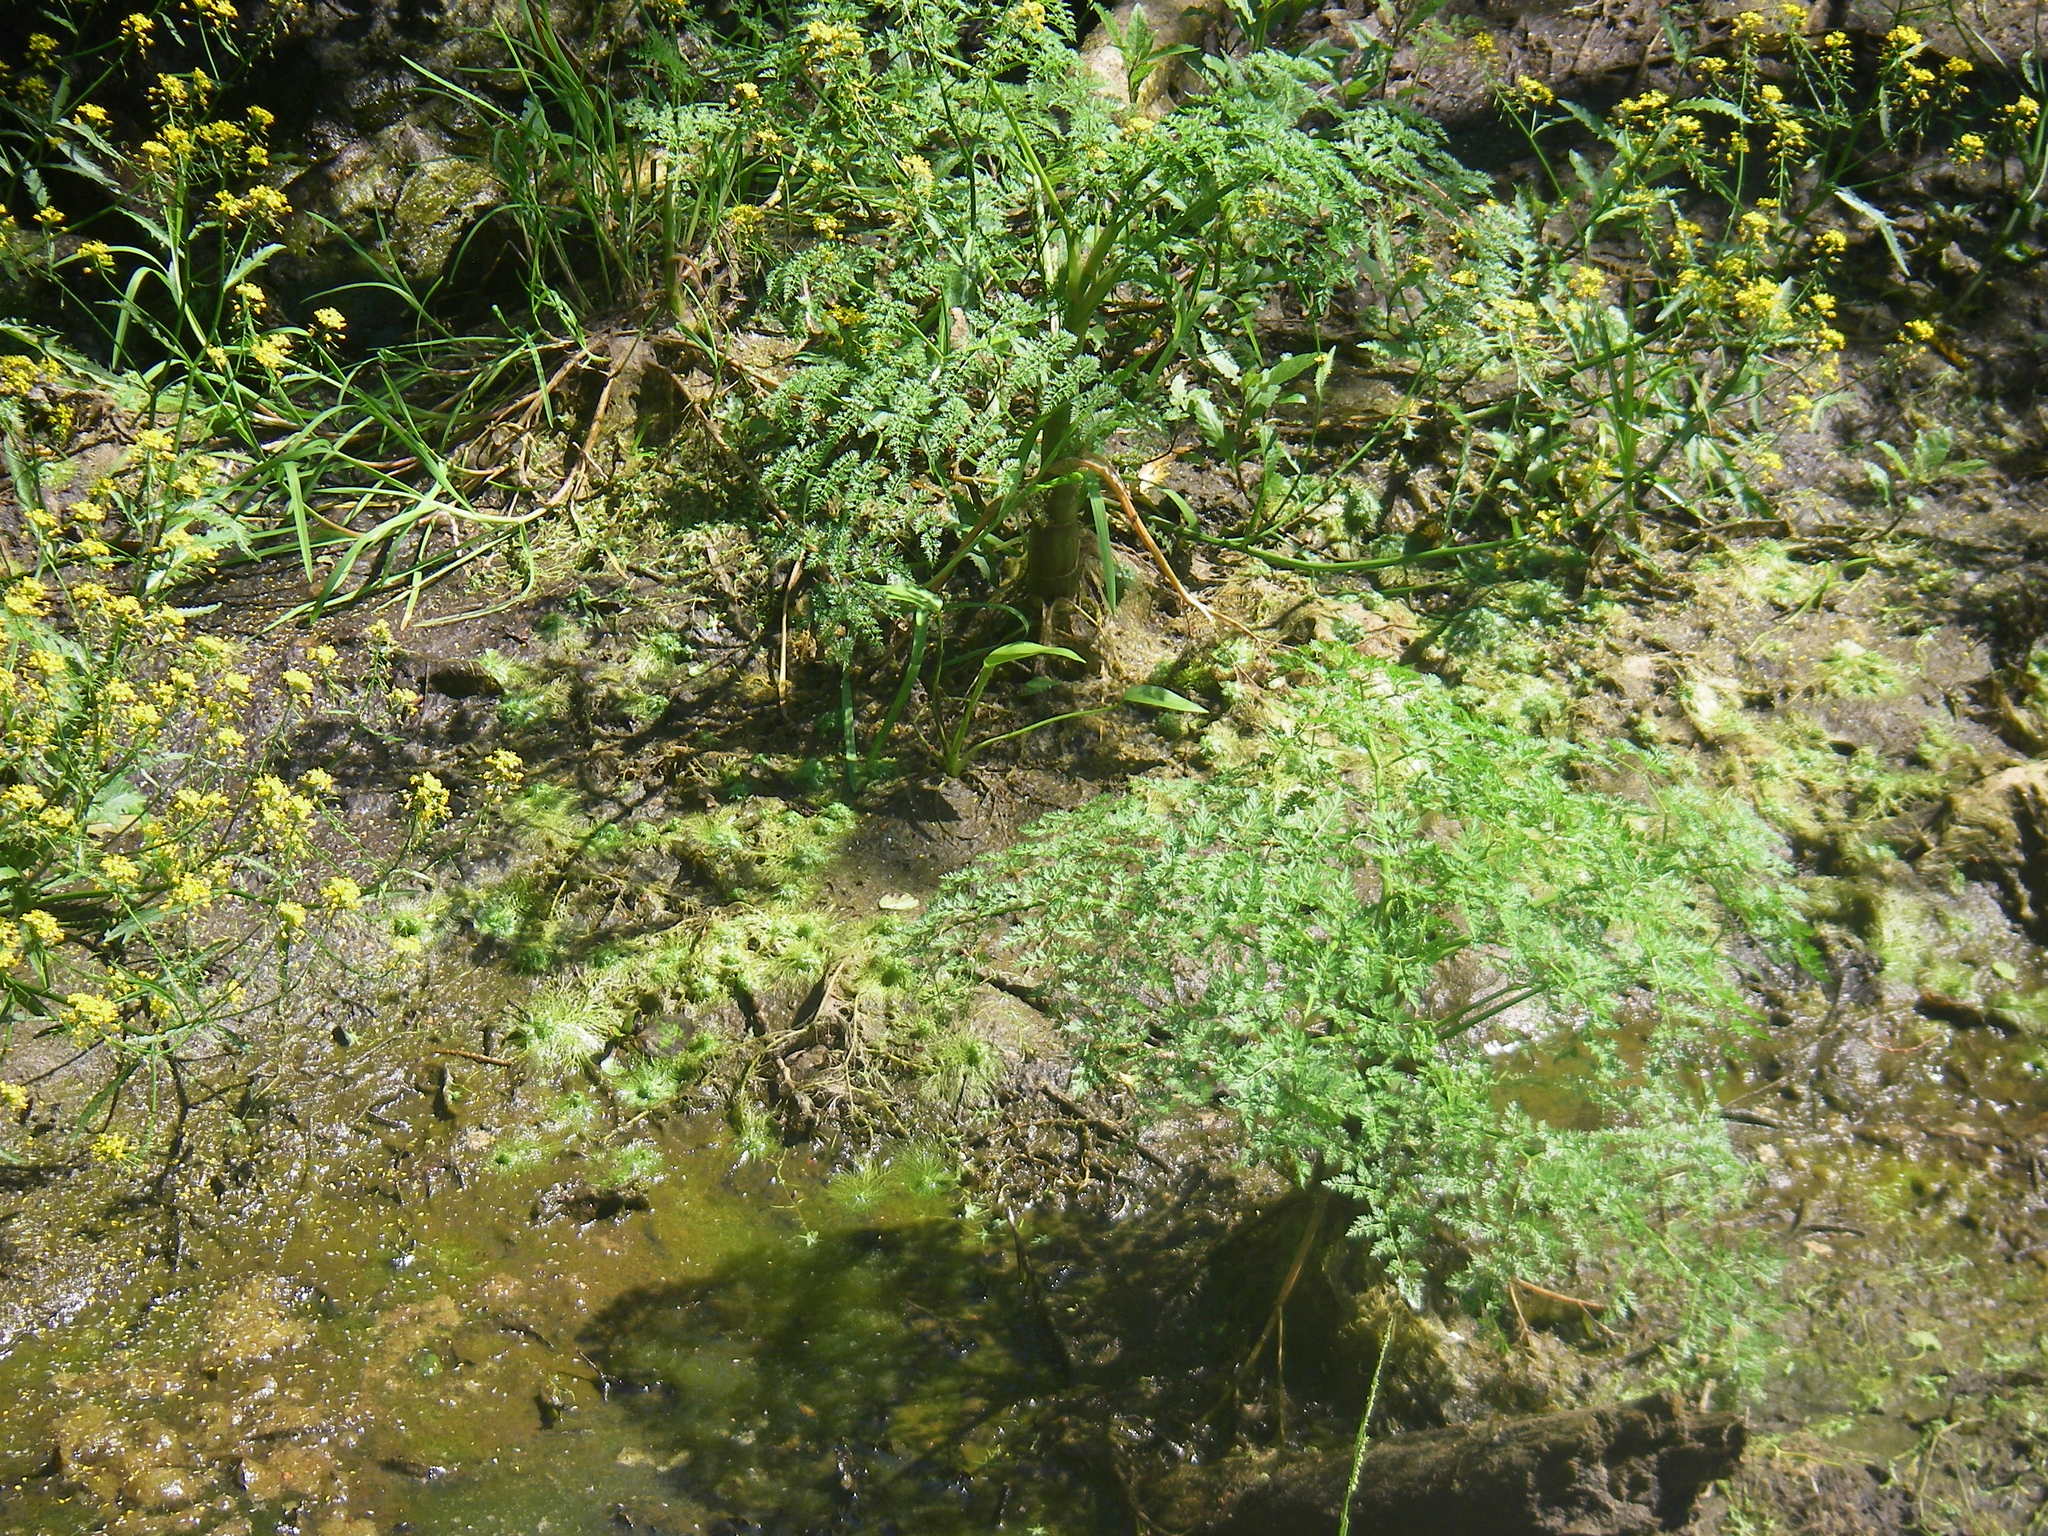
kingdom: Plantae
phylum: Tracheophyta
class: Magnoliopsida
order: Apiales
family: Apiaceae
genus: Oenanthe
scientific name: Oenanthe aquatica
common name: Fine-leaved water-dropwort
